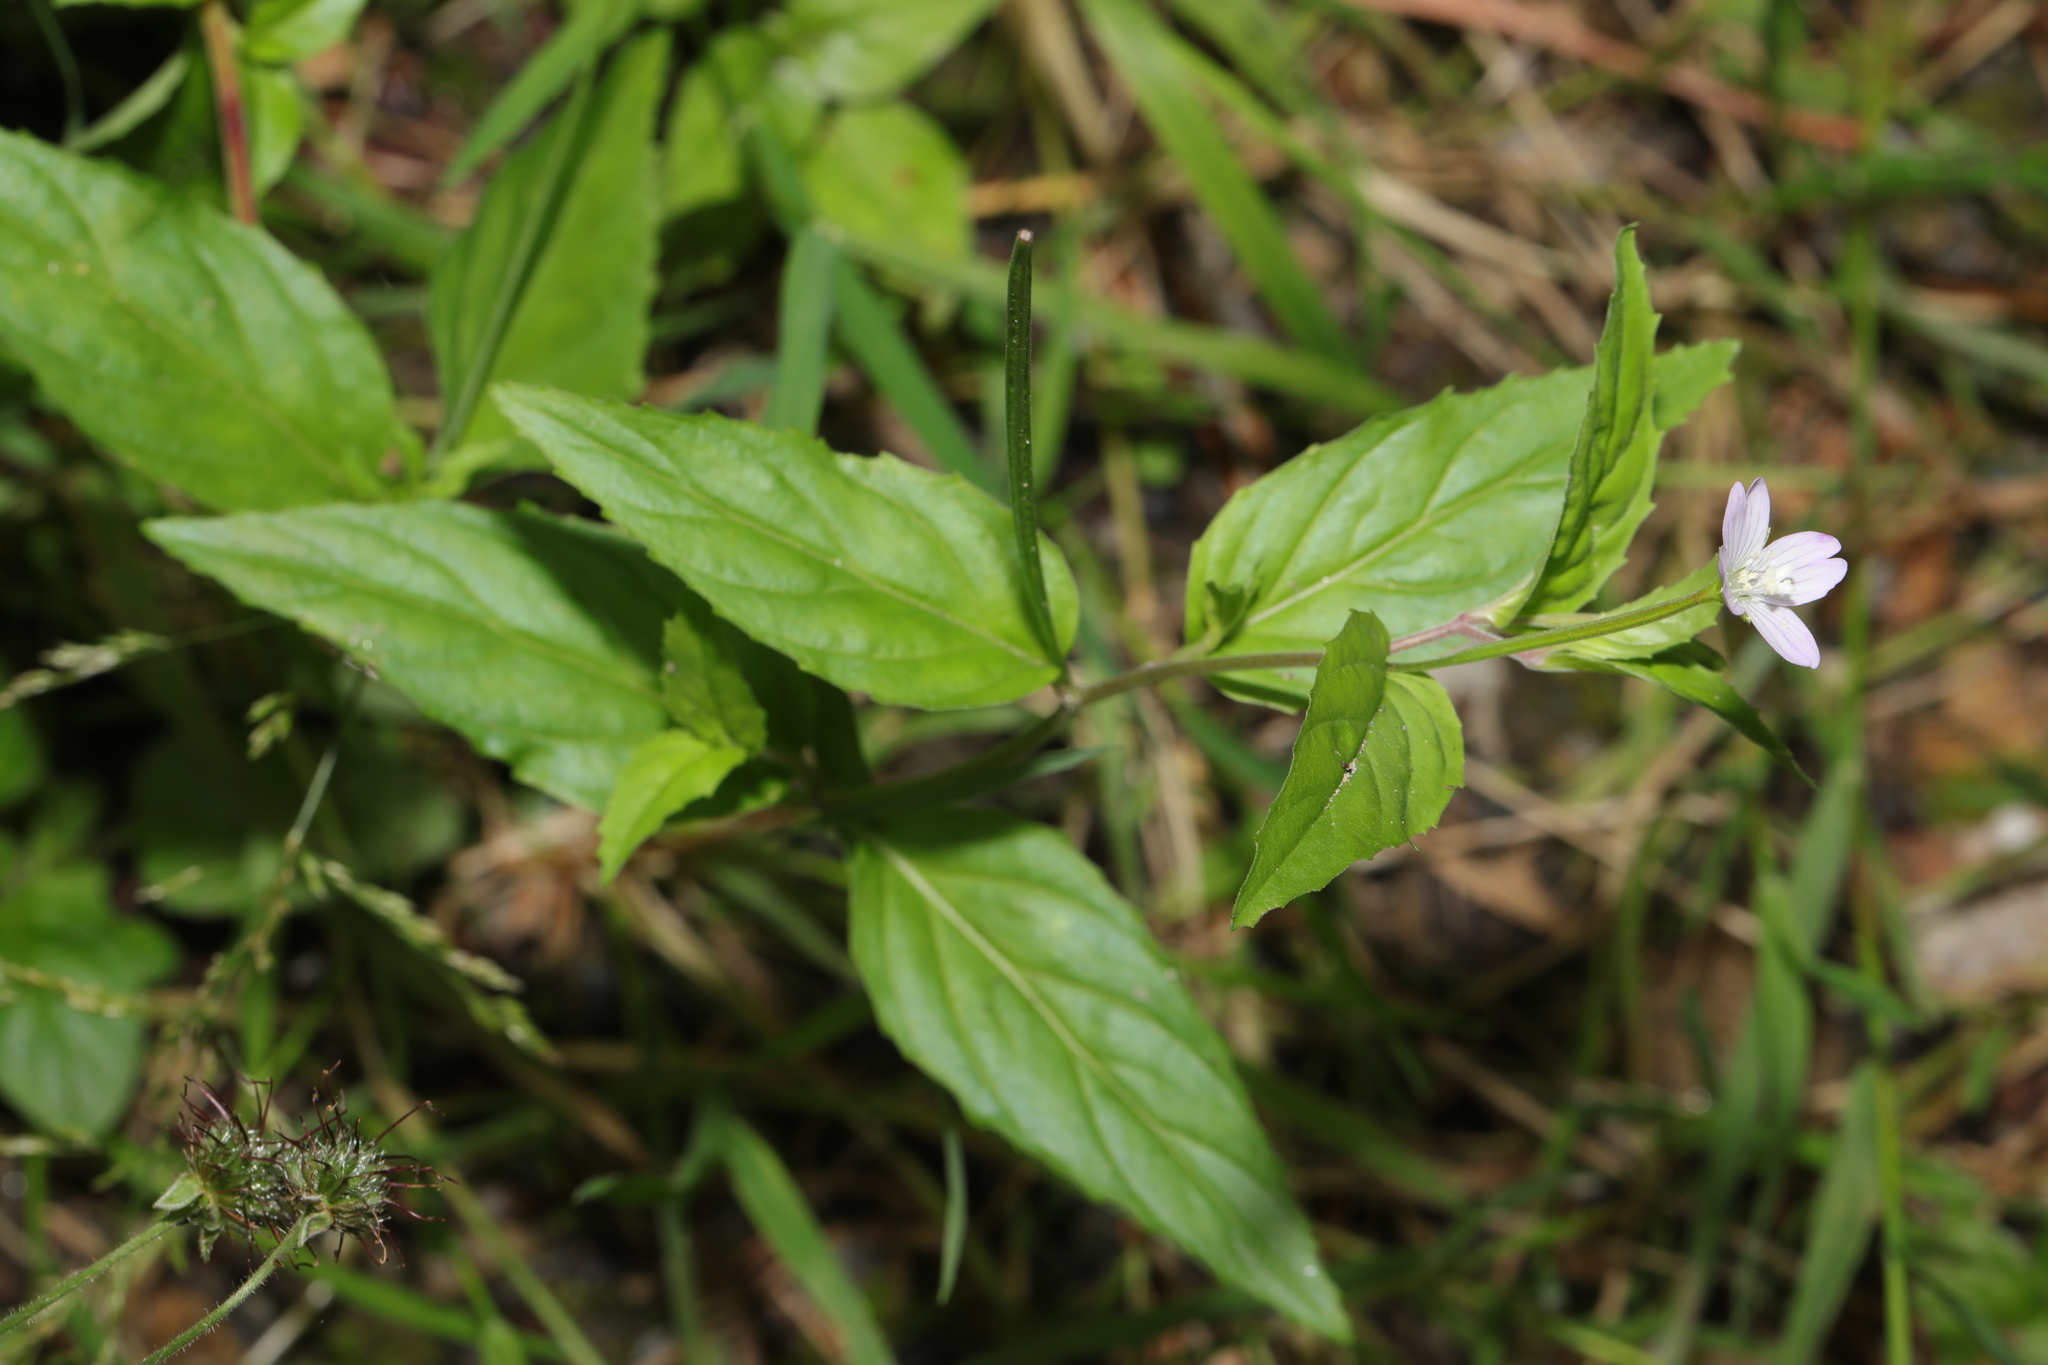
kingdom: Plantae
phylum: Tracheophyta
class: Magnoliopsida
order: Myrtales
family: Onagraceae
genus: Epilobium
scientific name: Epilobium montanum
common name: Broad-leaved willowherb
